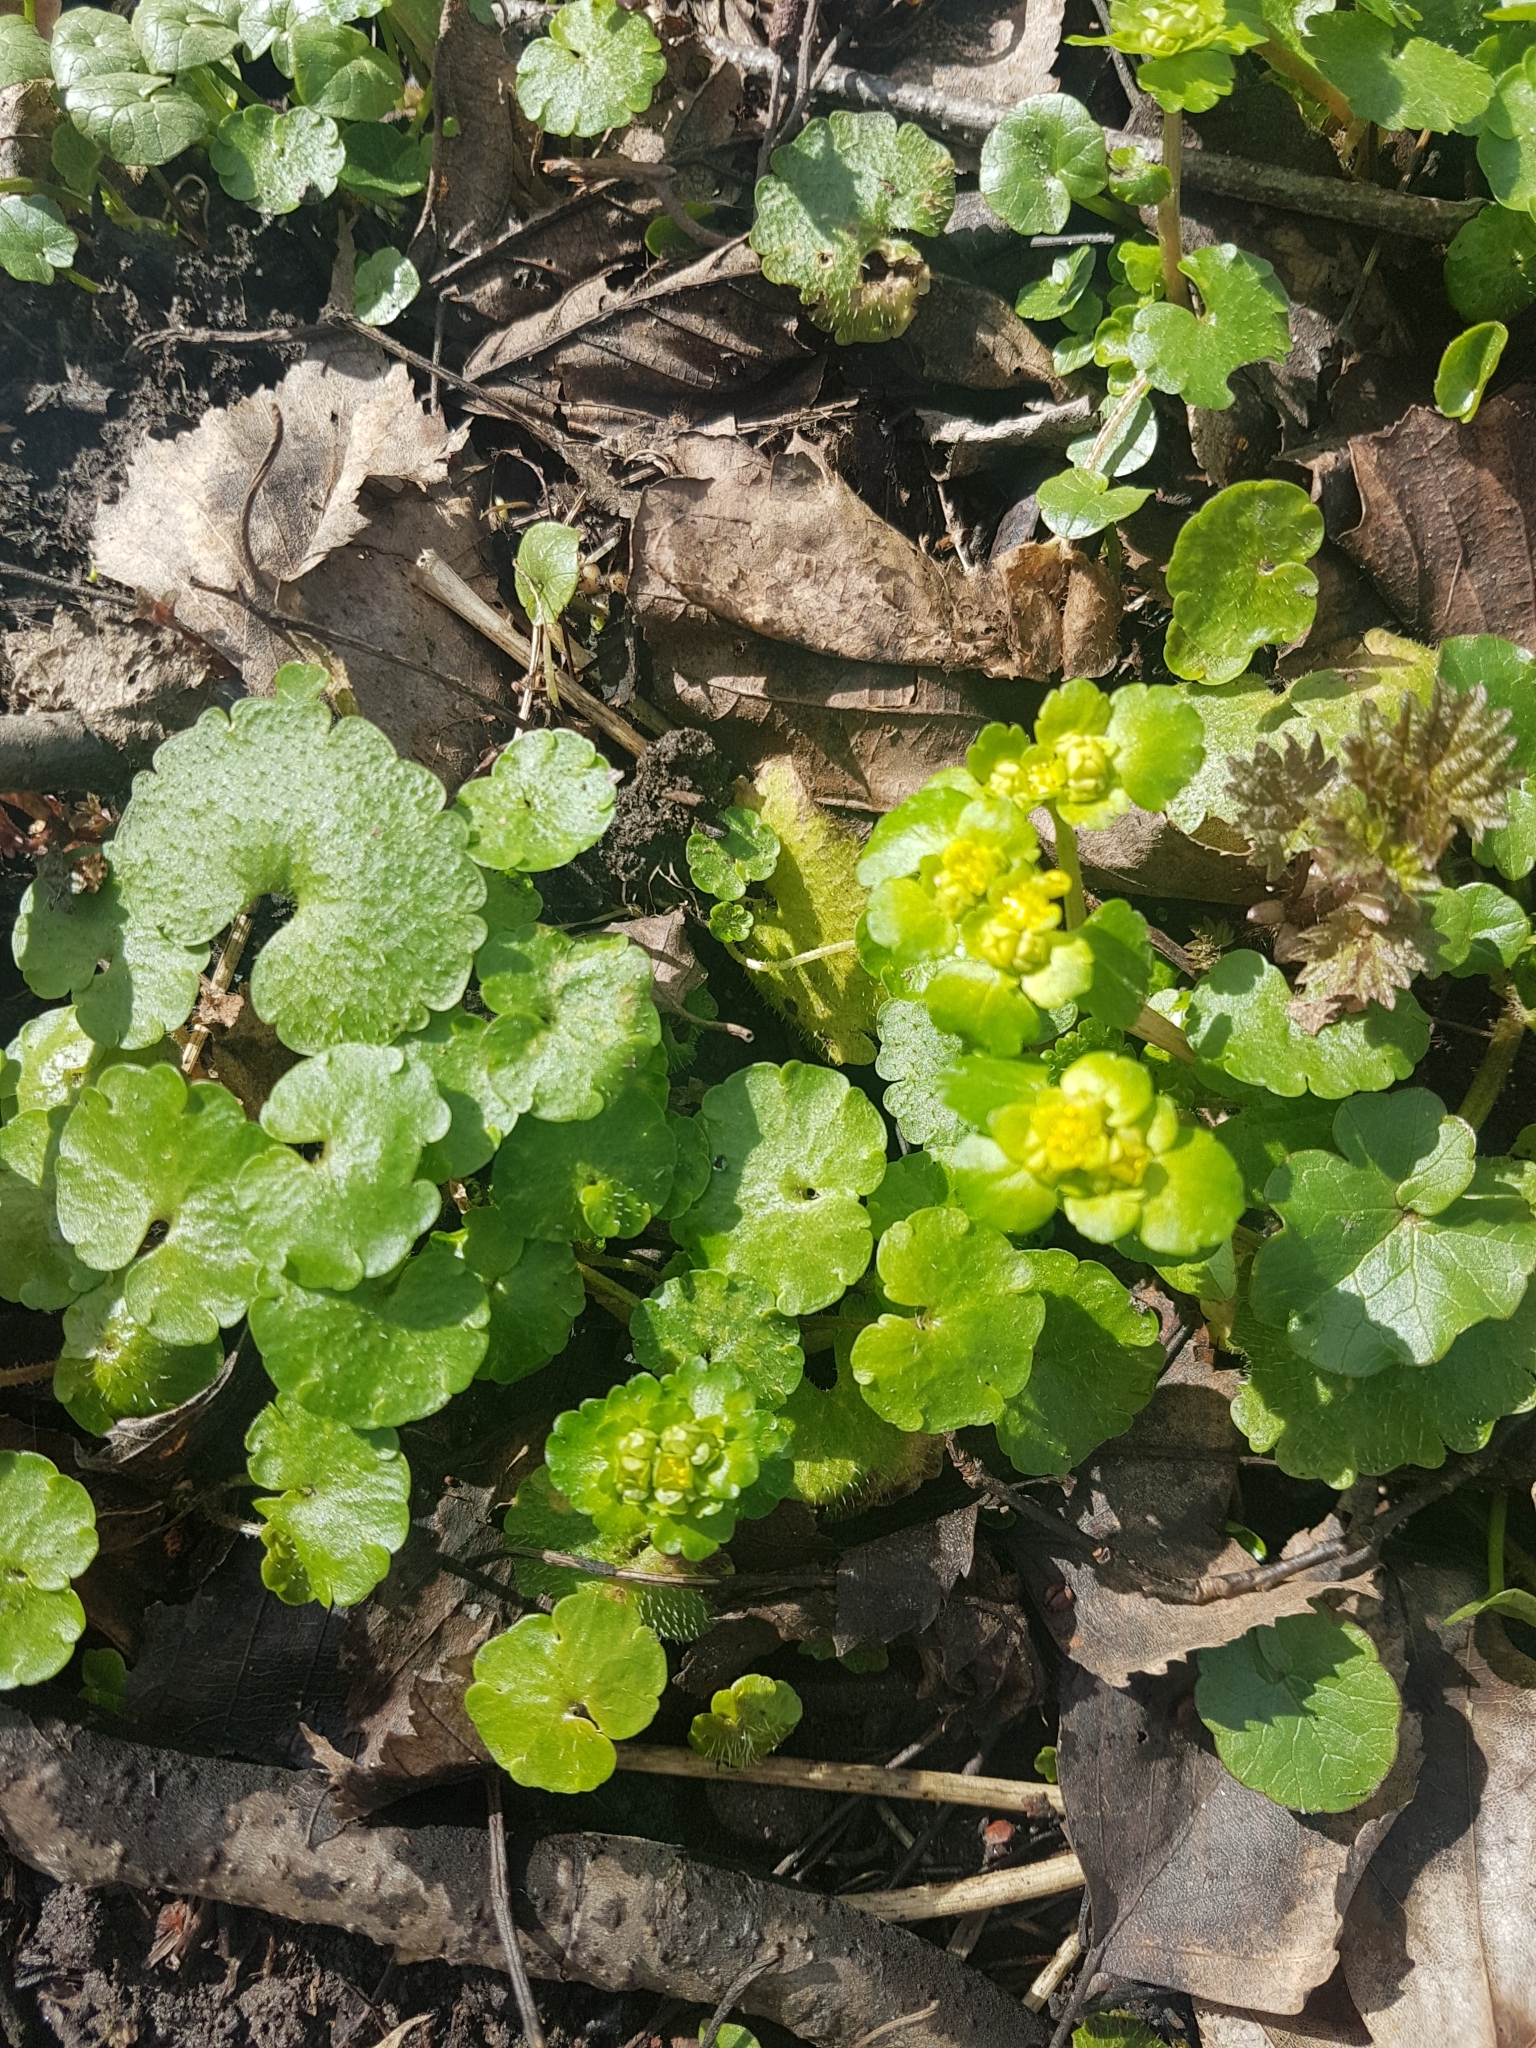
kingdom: Plantae
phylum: Tracheophyta
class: Magnoliopsida
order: Saxifragales
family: Saxifragaceae
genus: Chrysosplenium
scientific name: Chrysosplenium alternifolium
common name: Alternate-leaved golden-saxifrage
